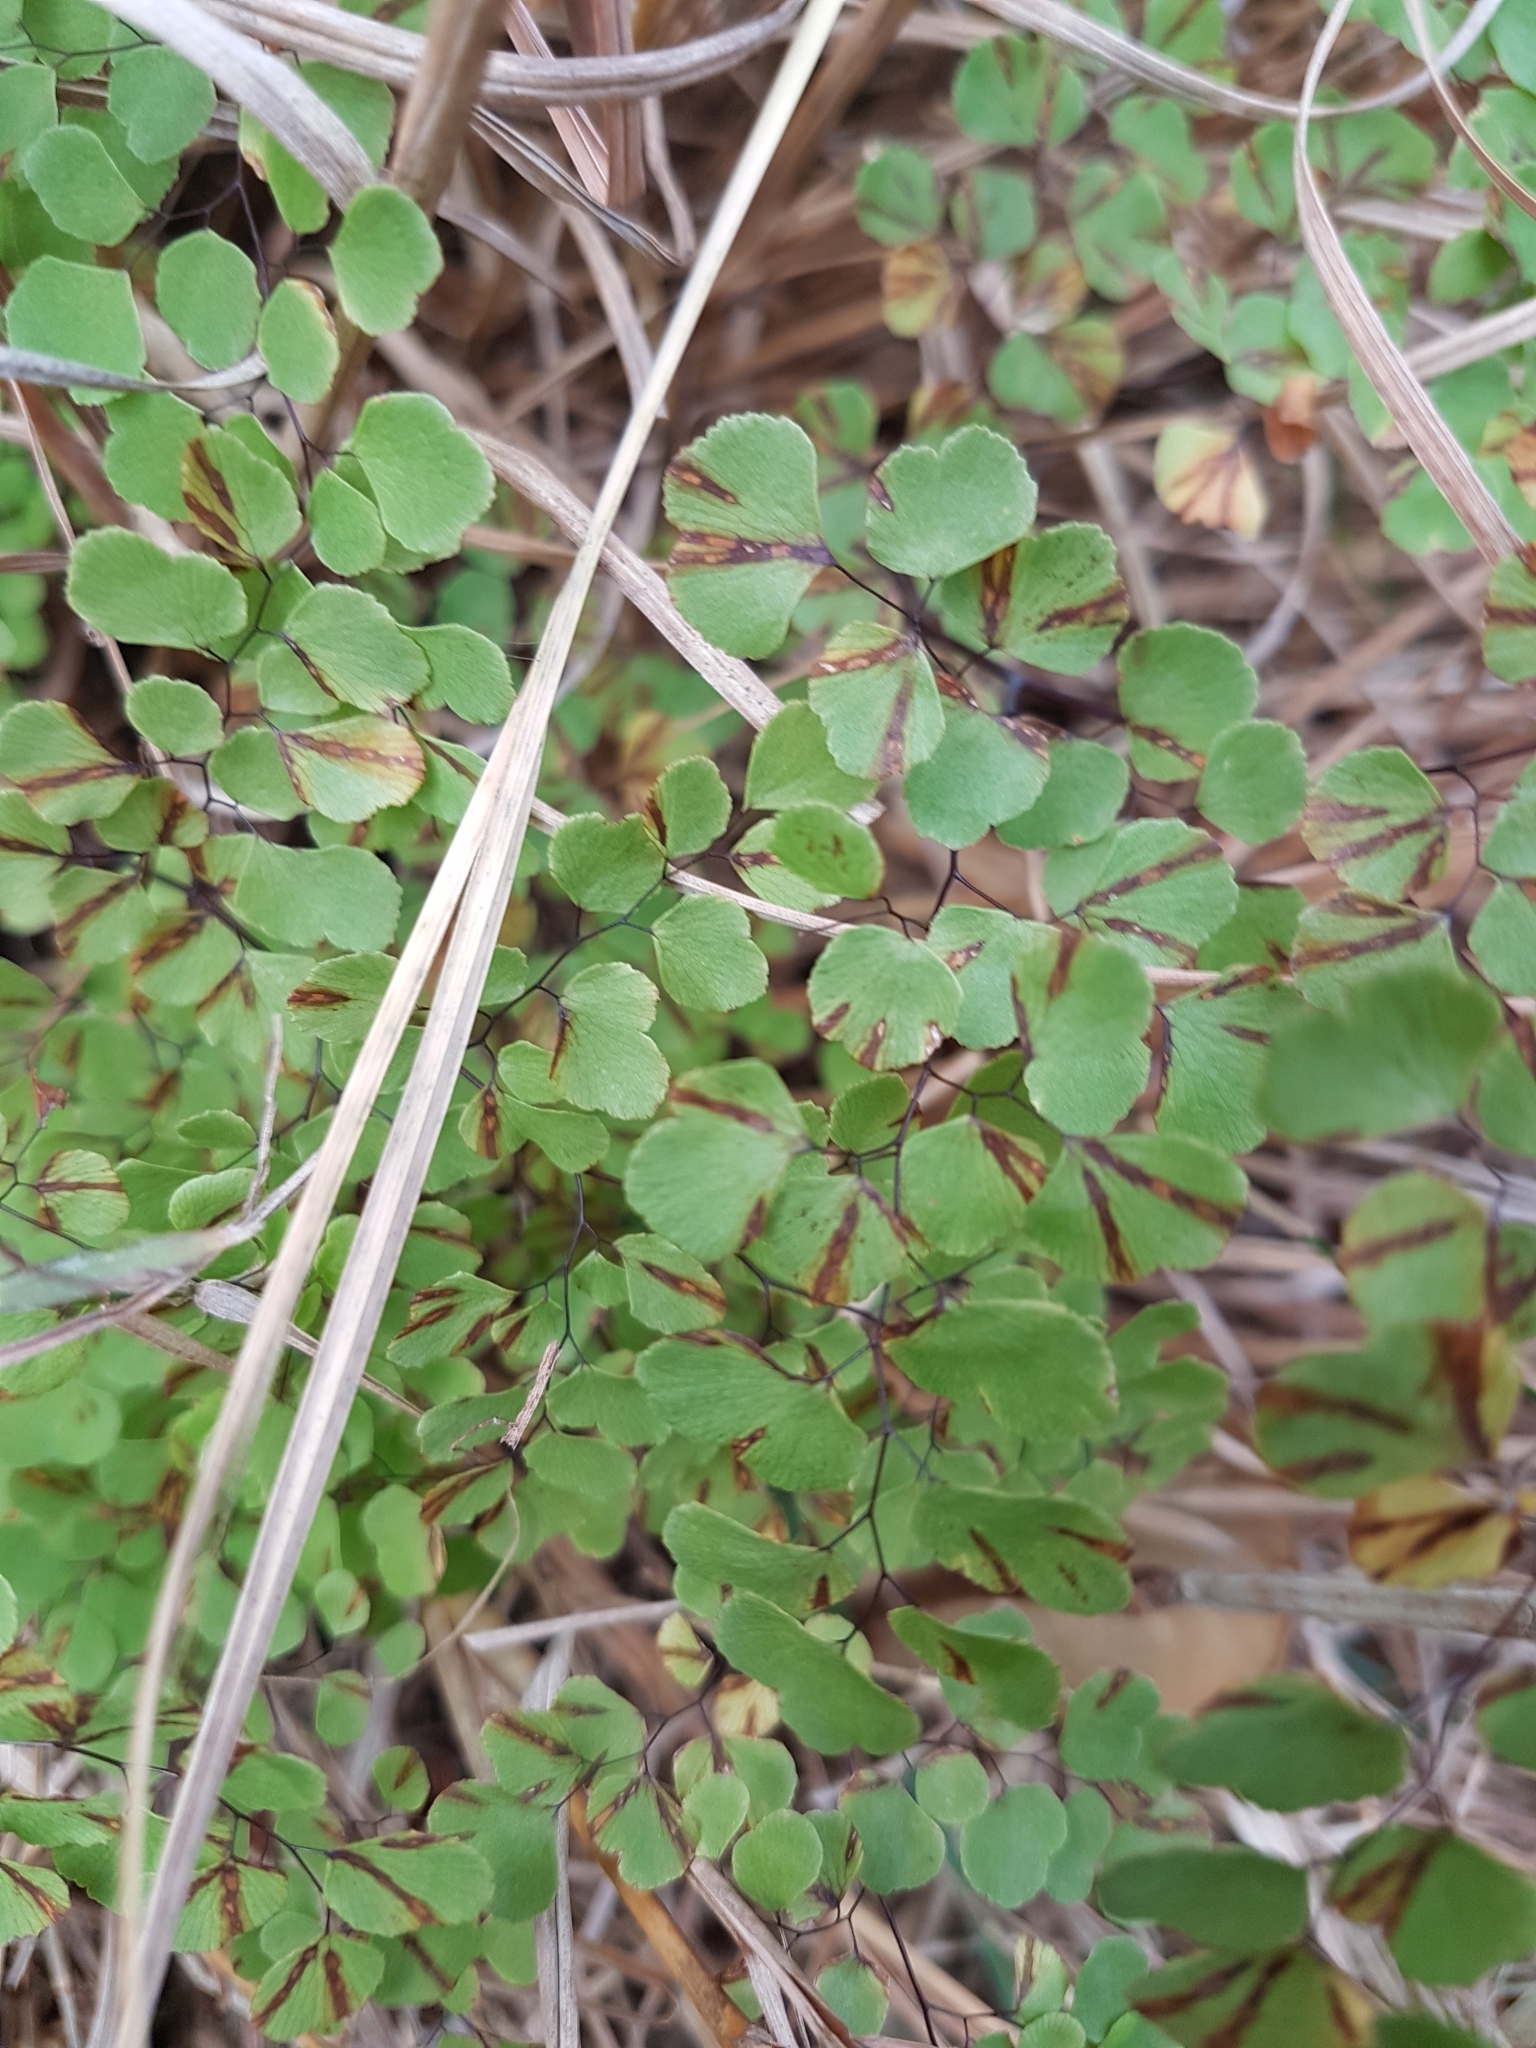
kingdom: Plantae
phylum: Tracheophyta
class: Polypodiopsida
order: Polypodiales
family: Pteridaceae
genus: Adiantum
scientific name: Adiantum aethiopicum
